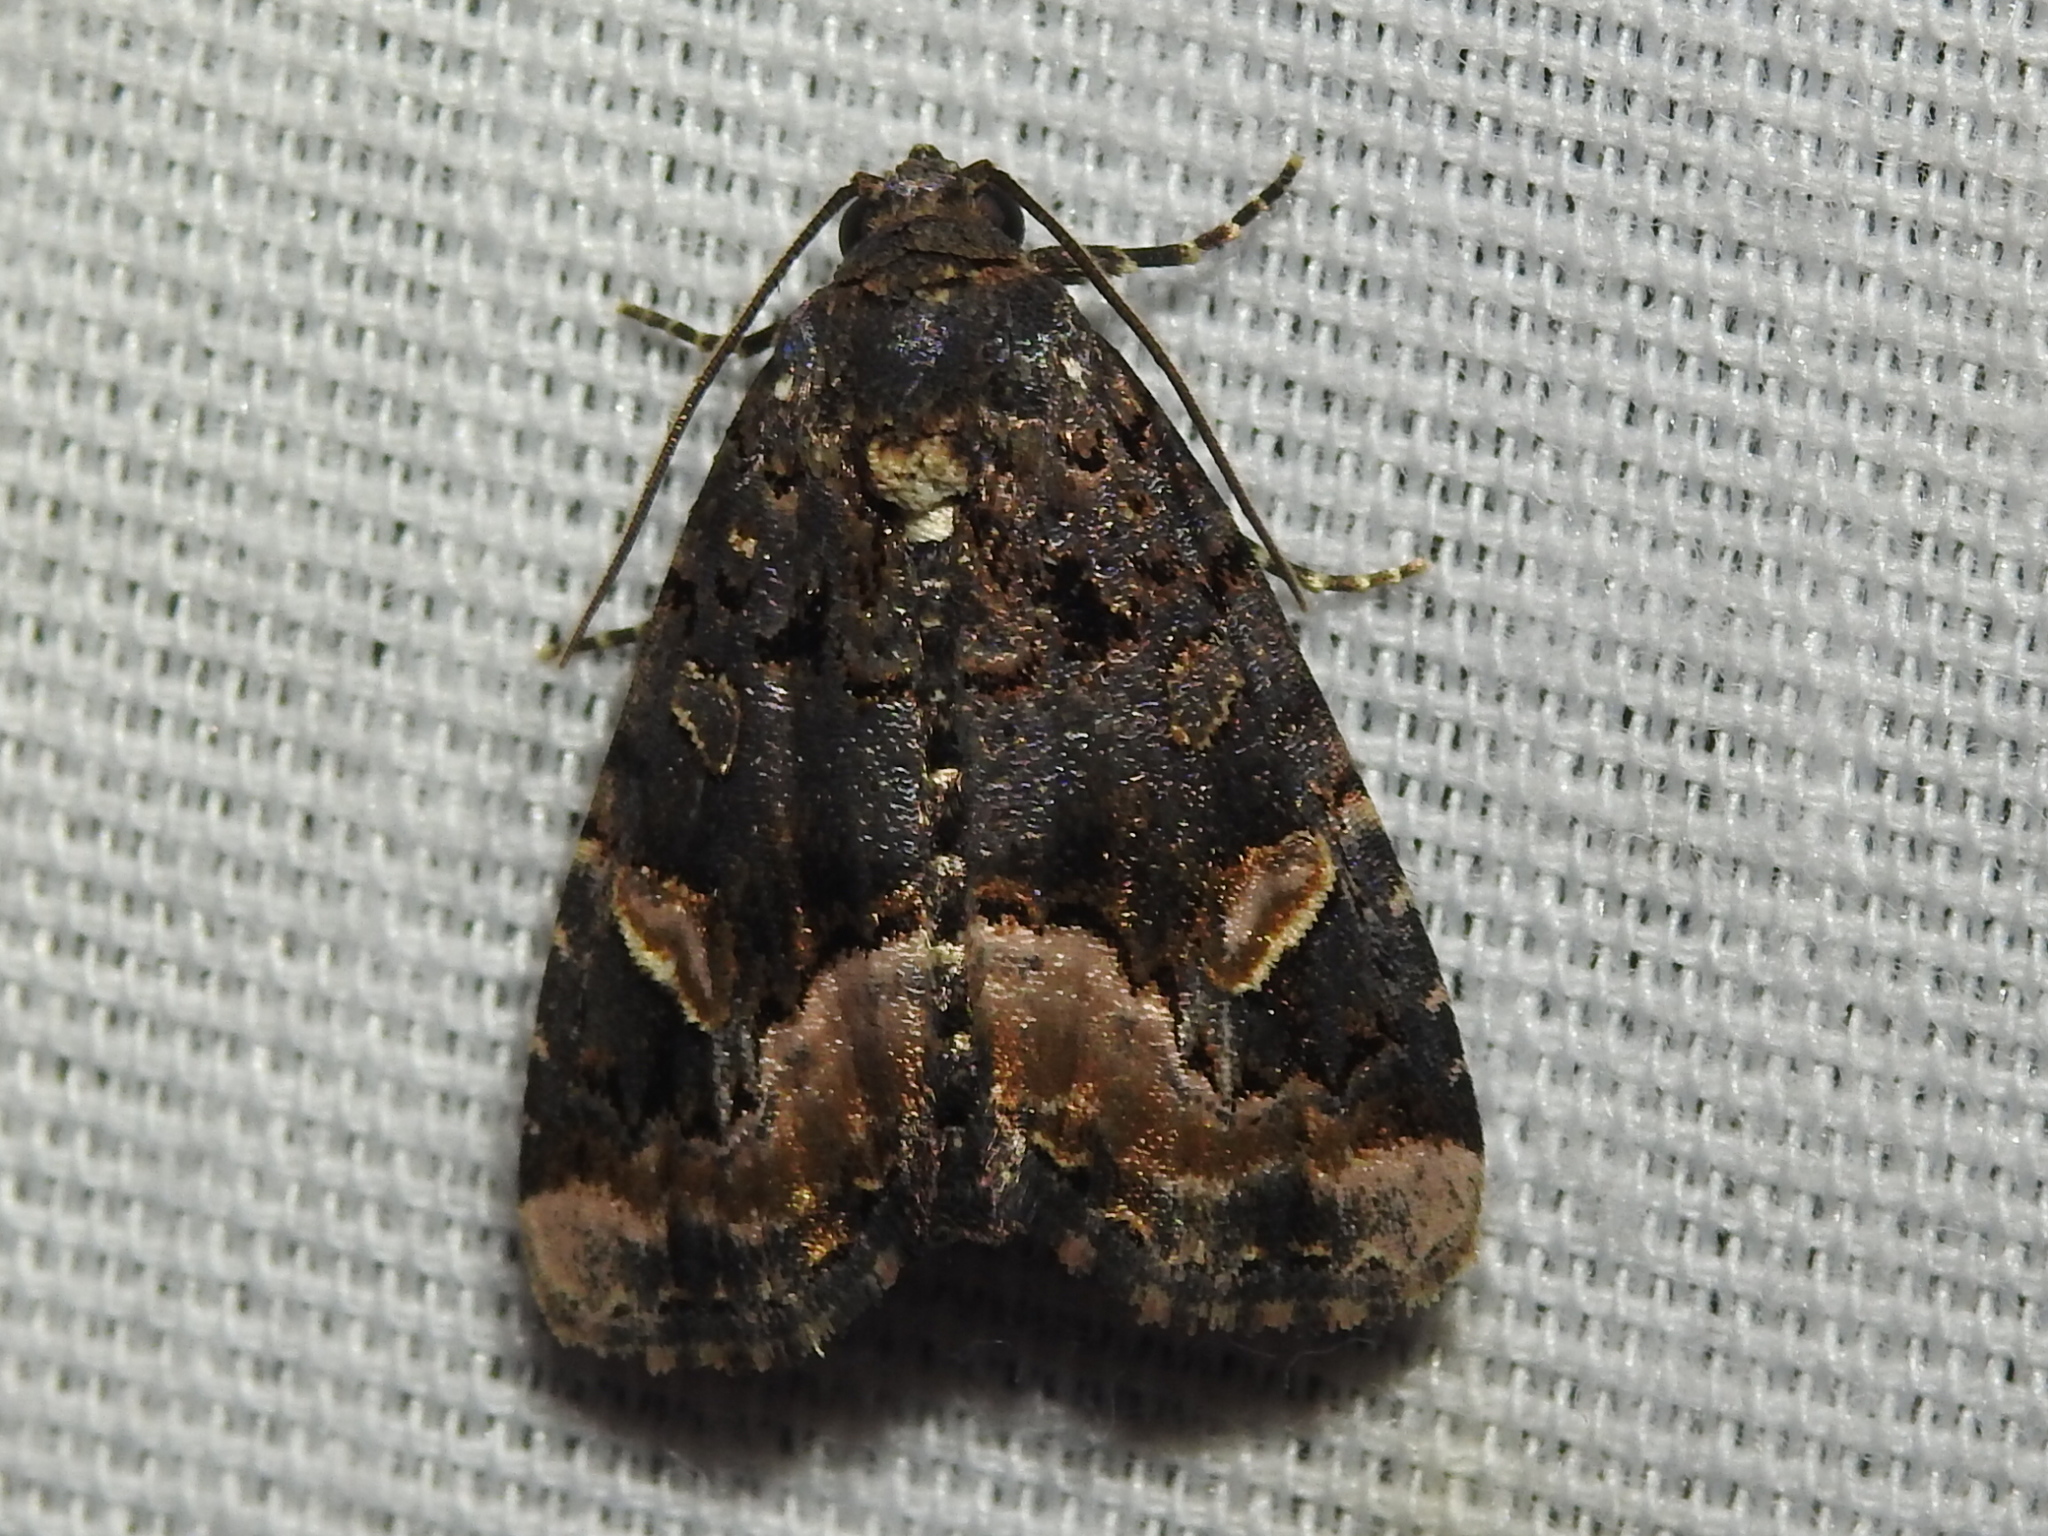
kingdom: Animalia
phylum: Arthropoda
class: Insecta
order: Lepidoptera
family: Noctuidae
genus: Homophoberia
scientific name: Homophoberia apicosa
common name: Black wedge-spot
